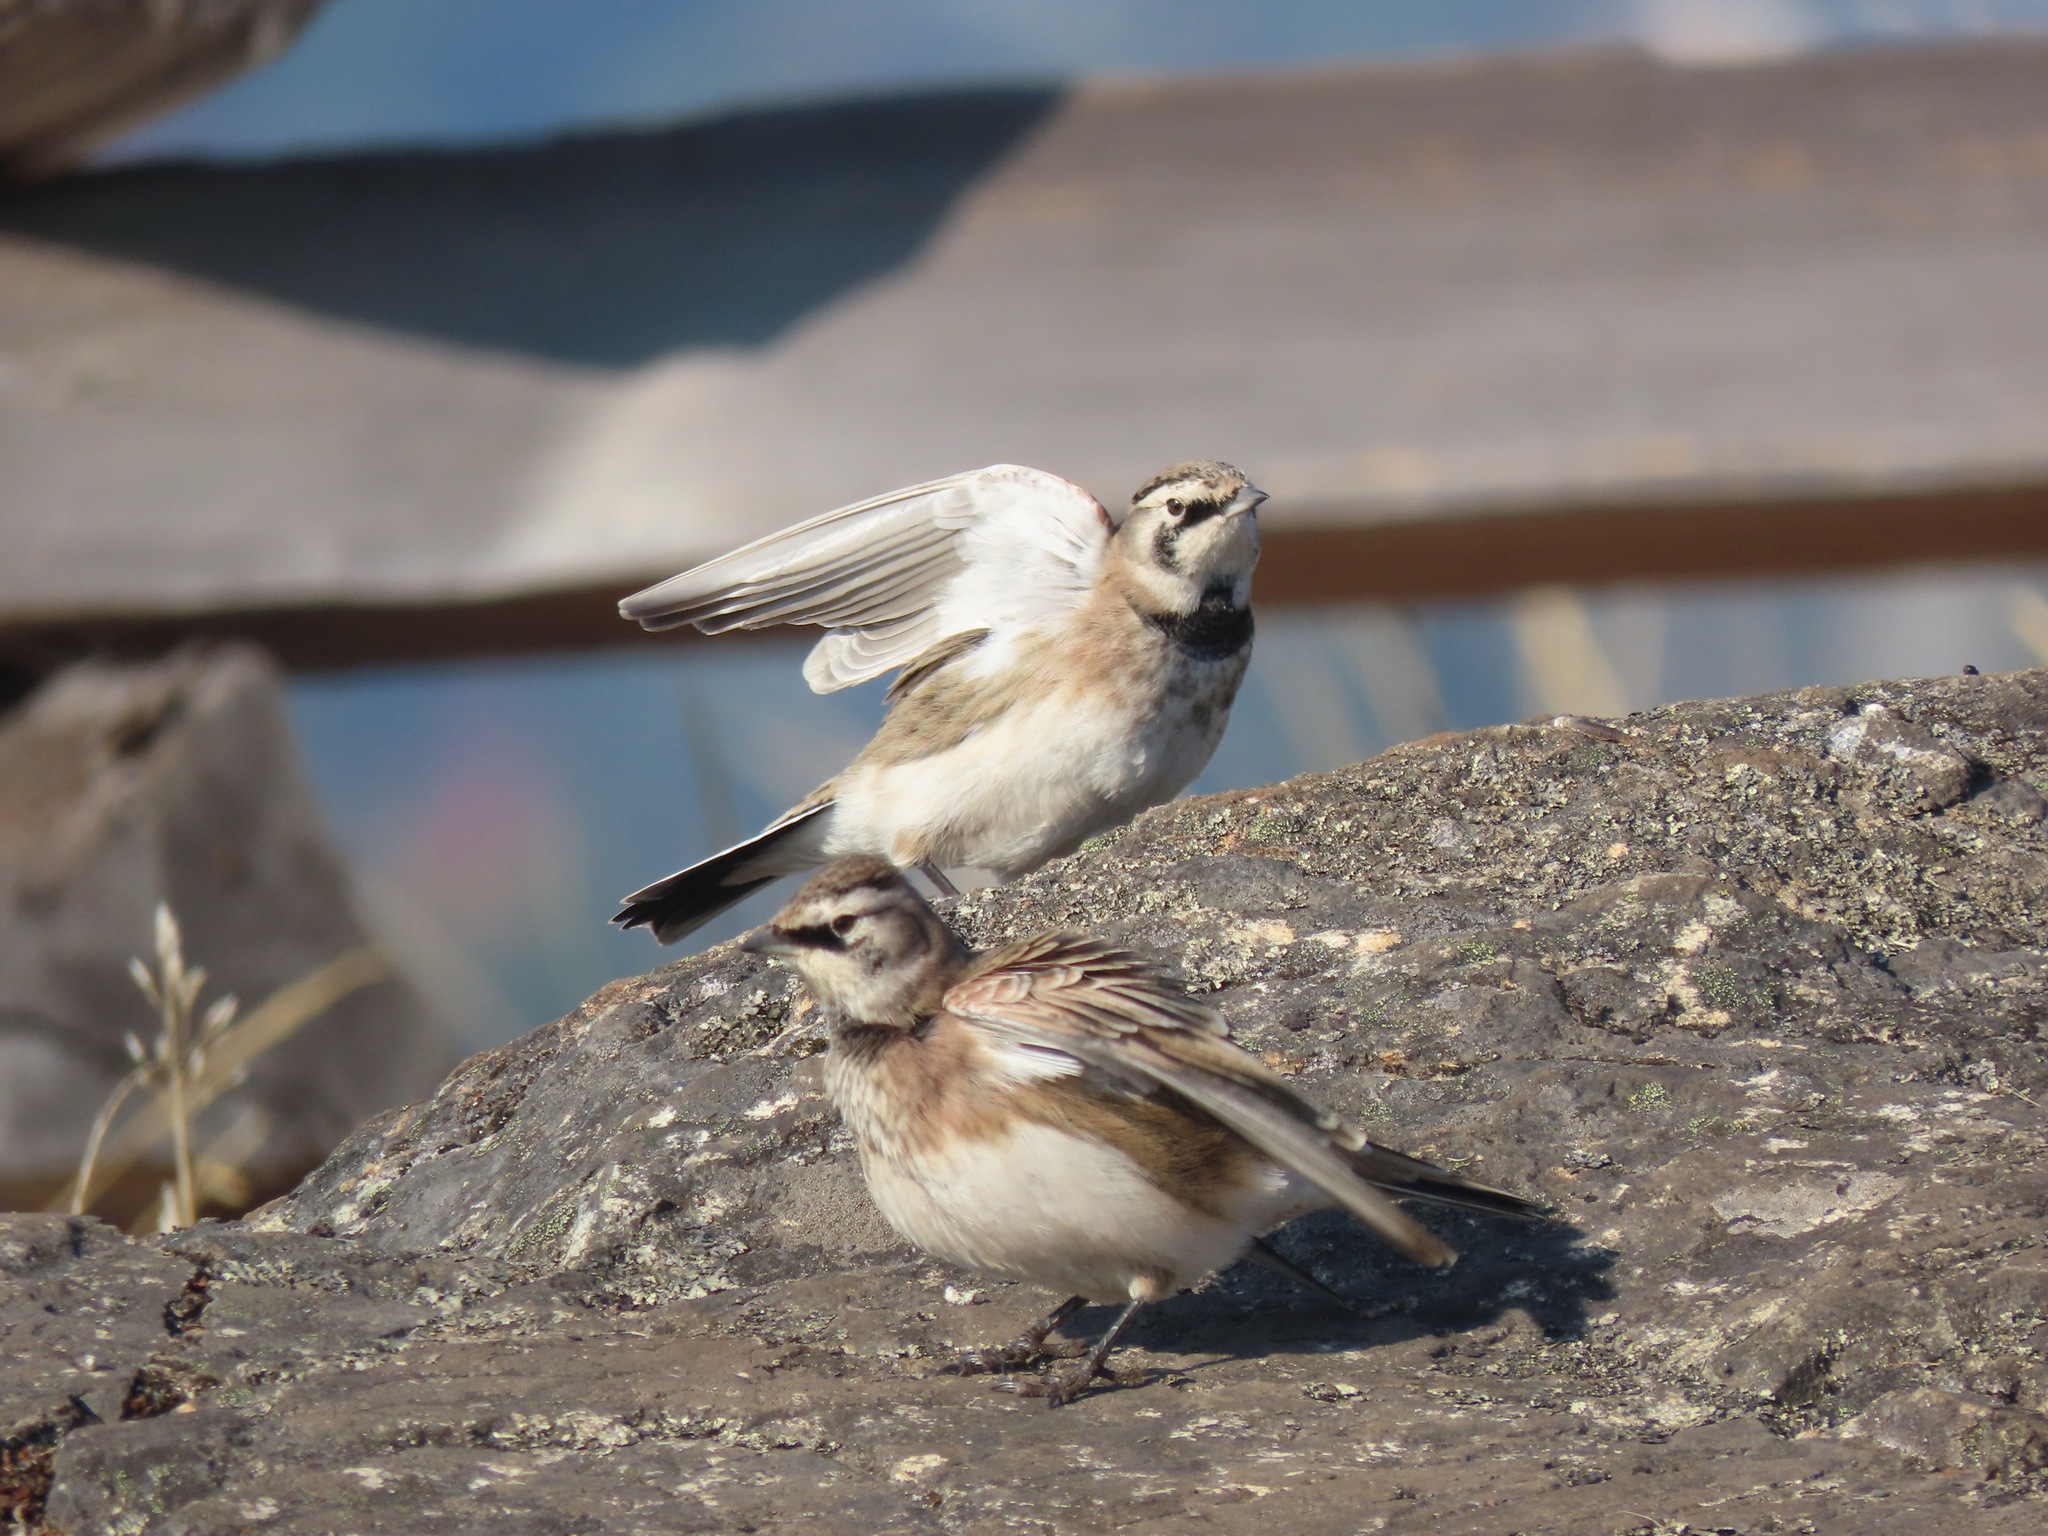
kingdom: Animalia
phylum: Chordata
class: Aves
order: Passeriformes
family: Alaudidae
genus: Eremophila
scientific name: Eremophila alpestris
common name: Horned lark
